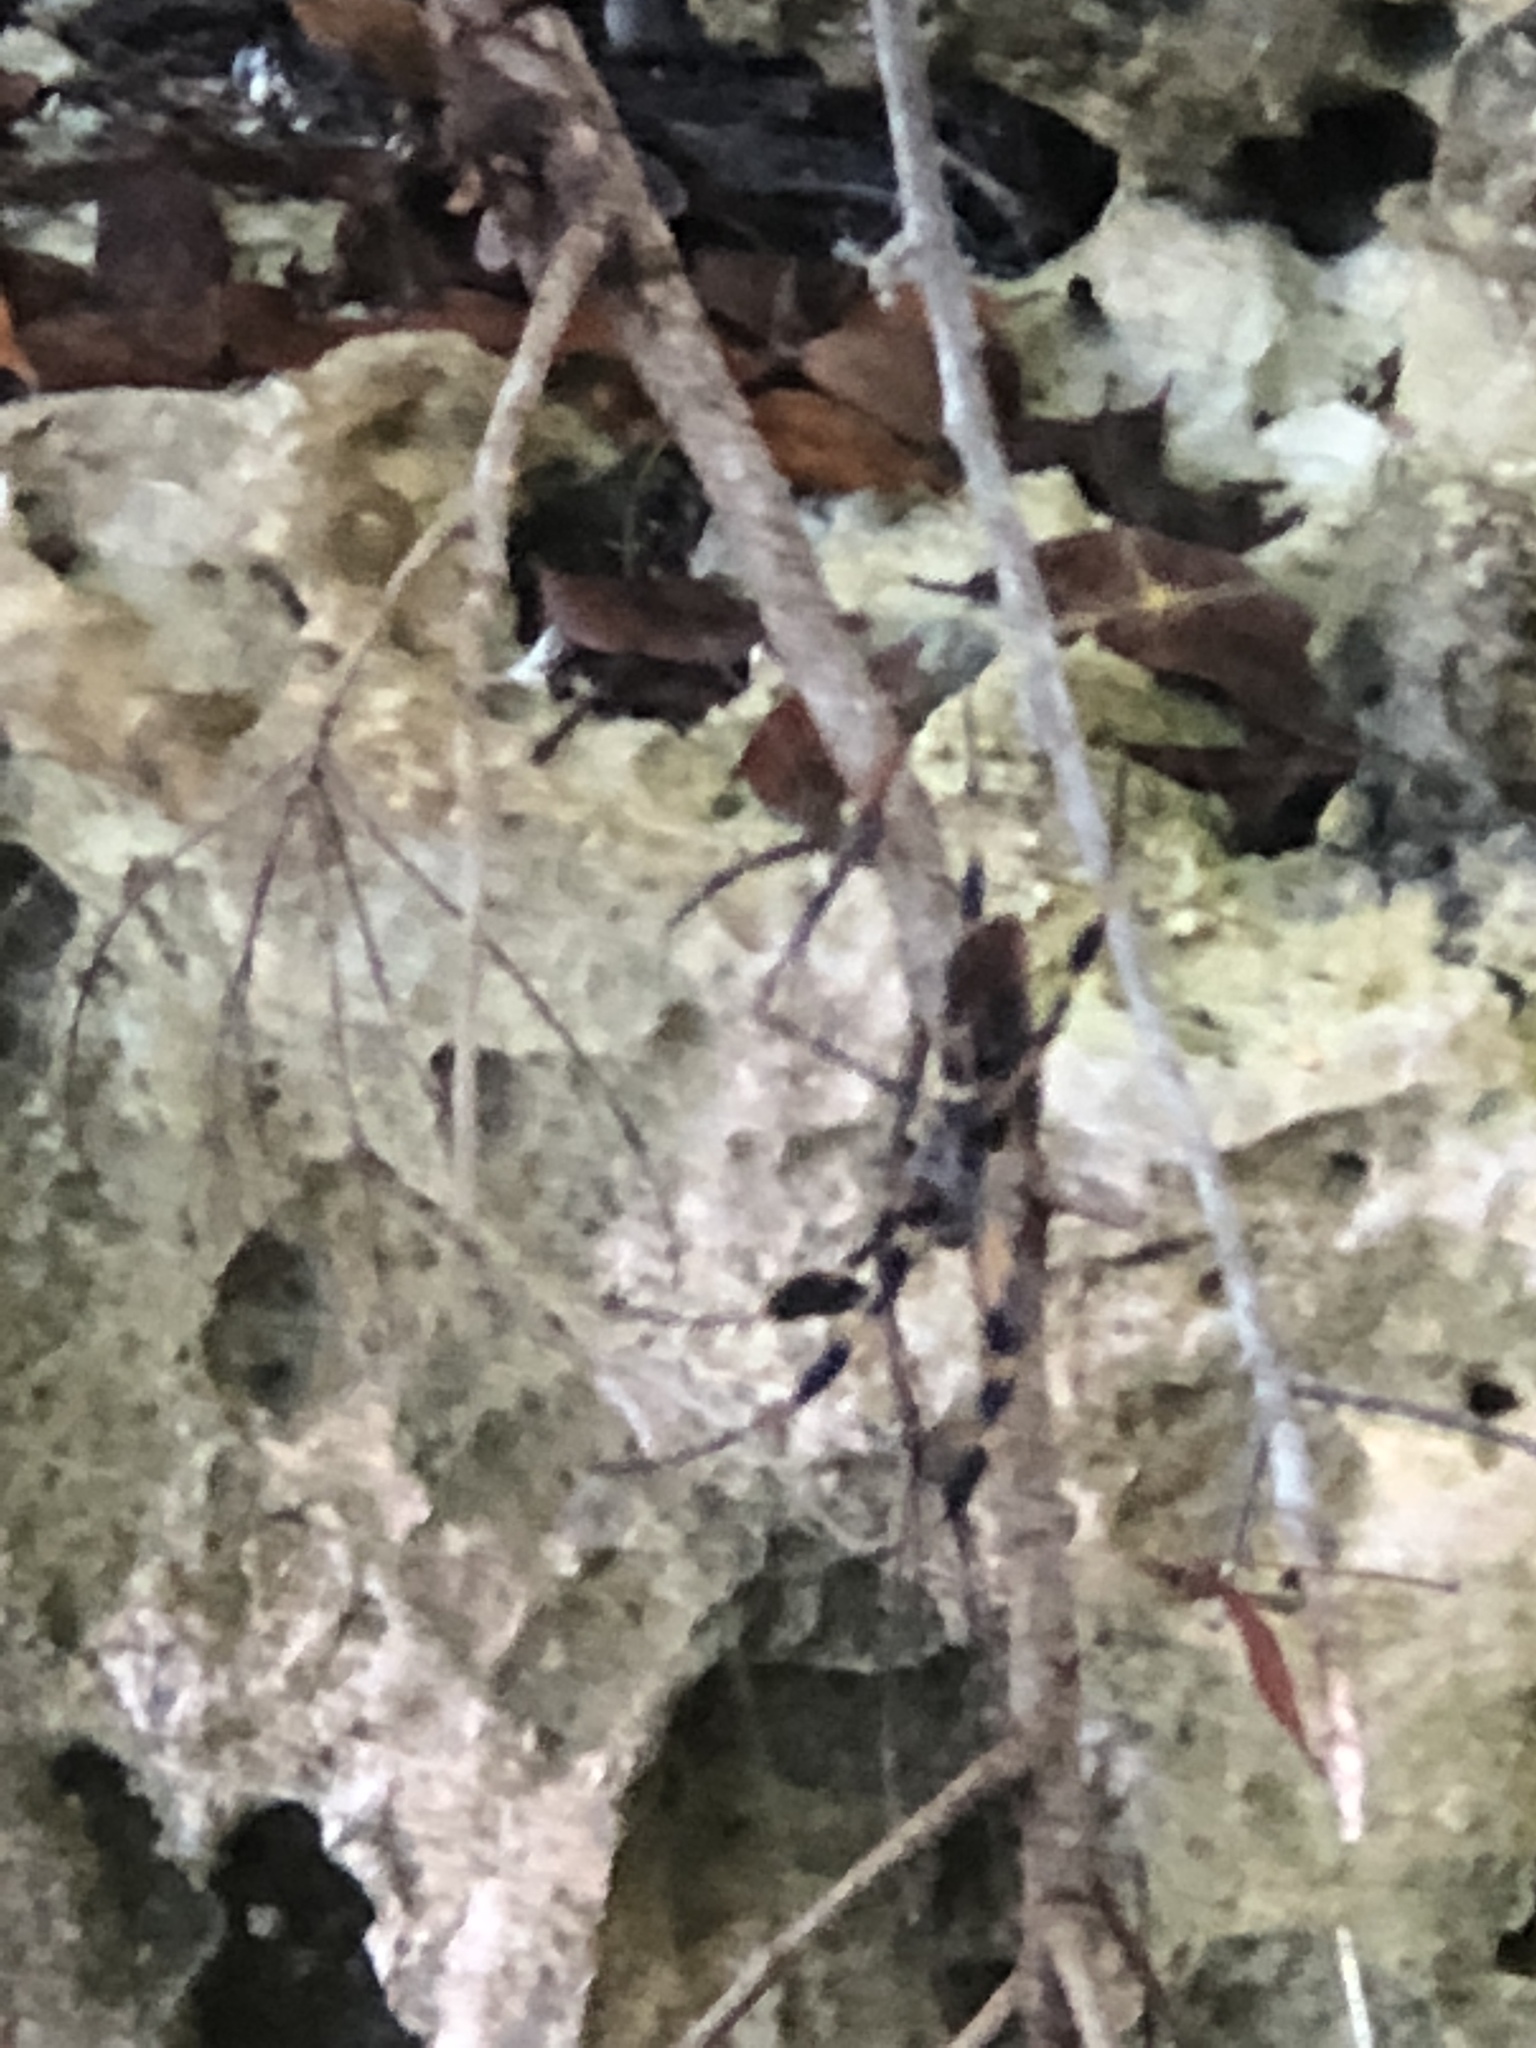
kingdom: Animalia
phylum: Arthropoda
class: Arachnida
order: Araneae
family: Araneidae
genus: Trichonephila
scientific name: Trichonephila clavipes
